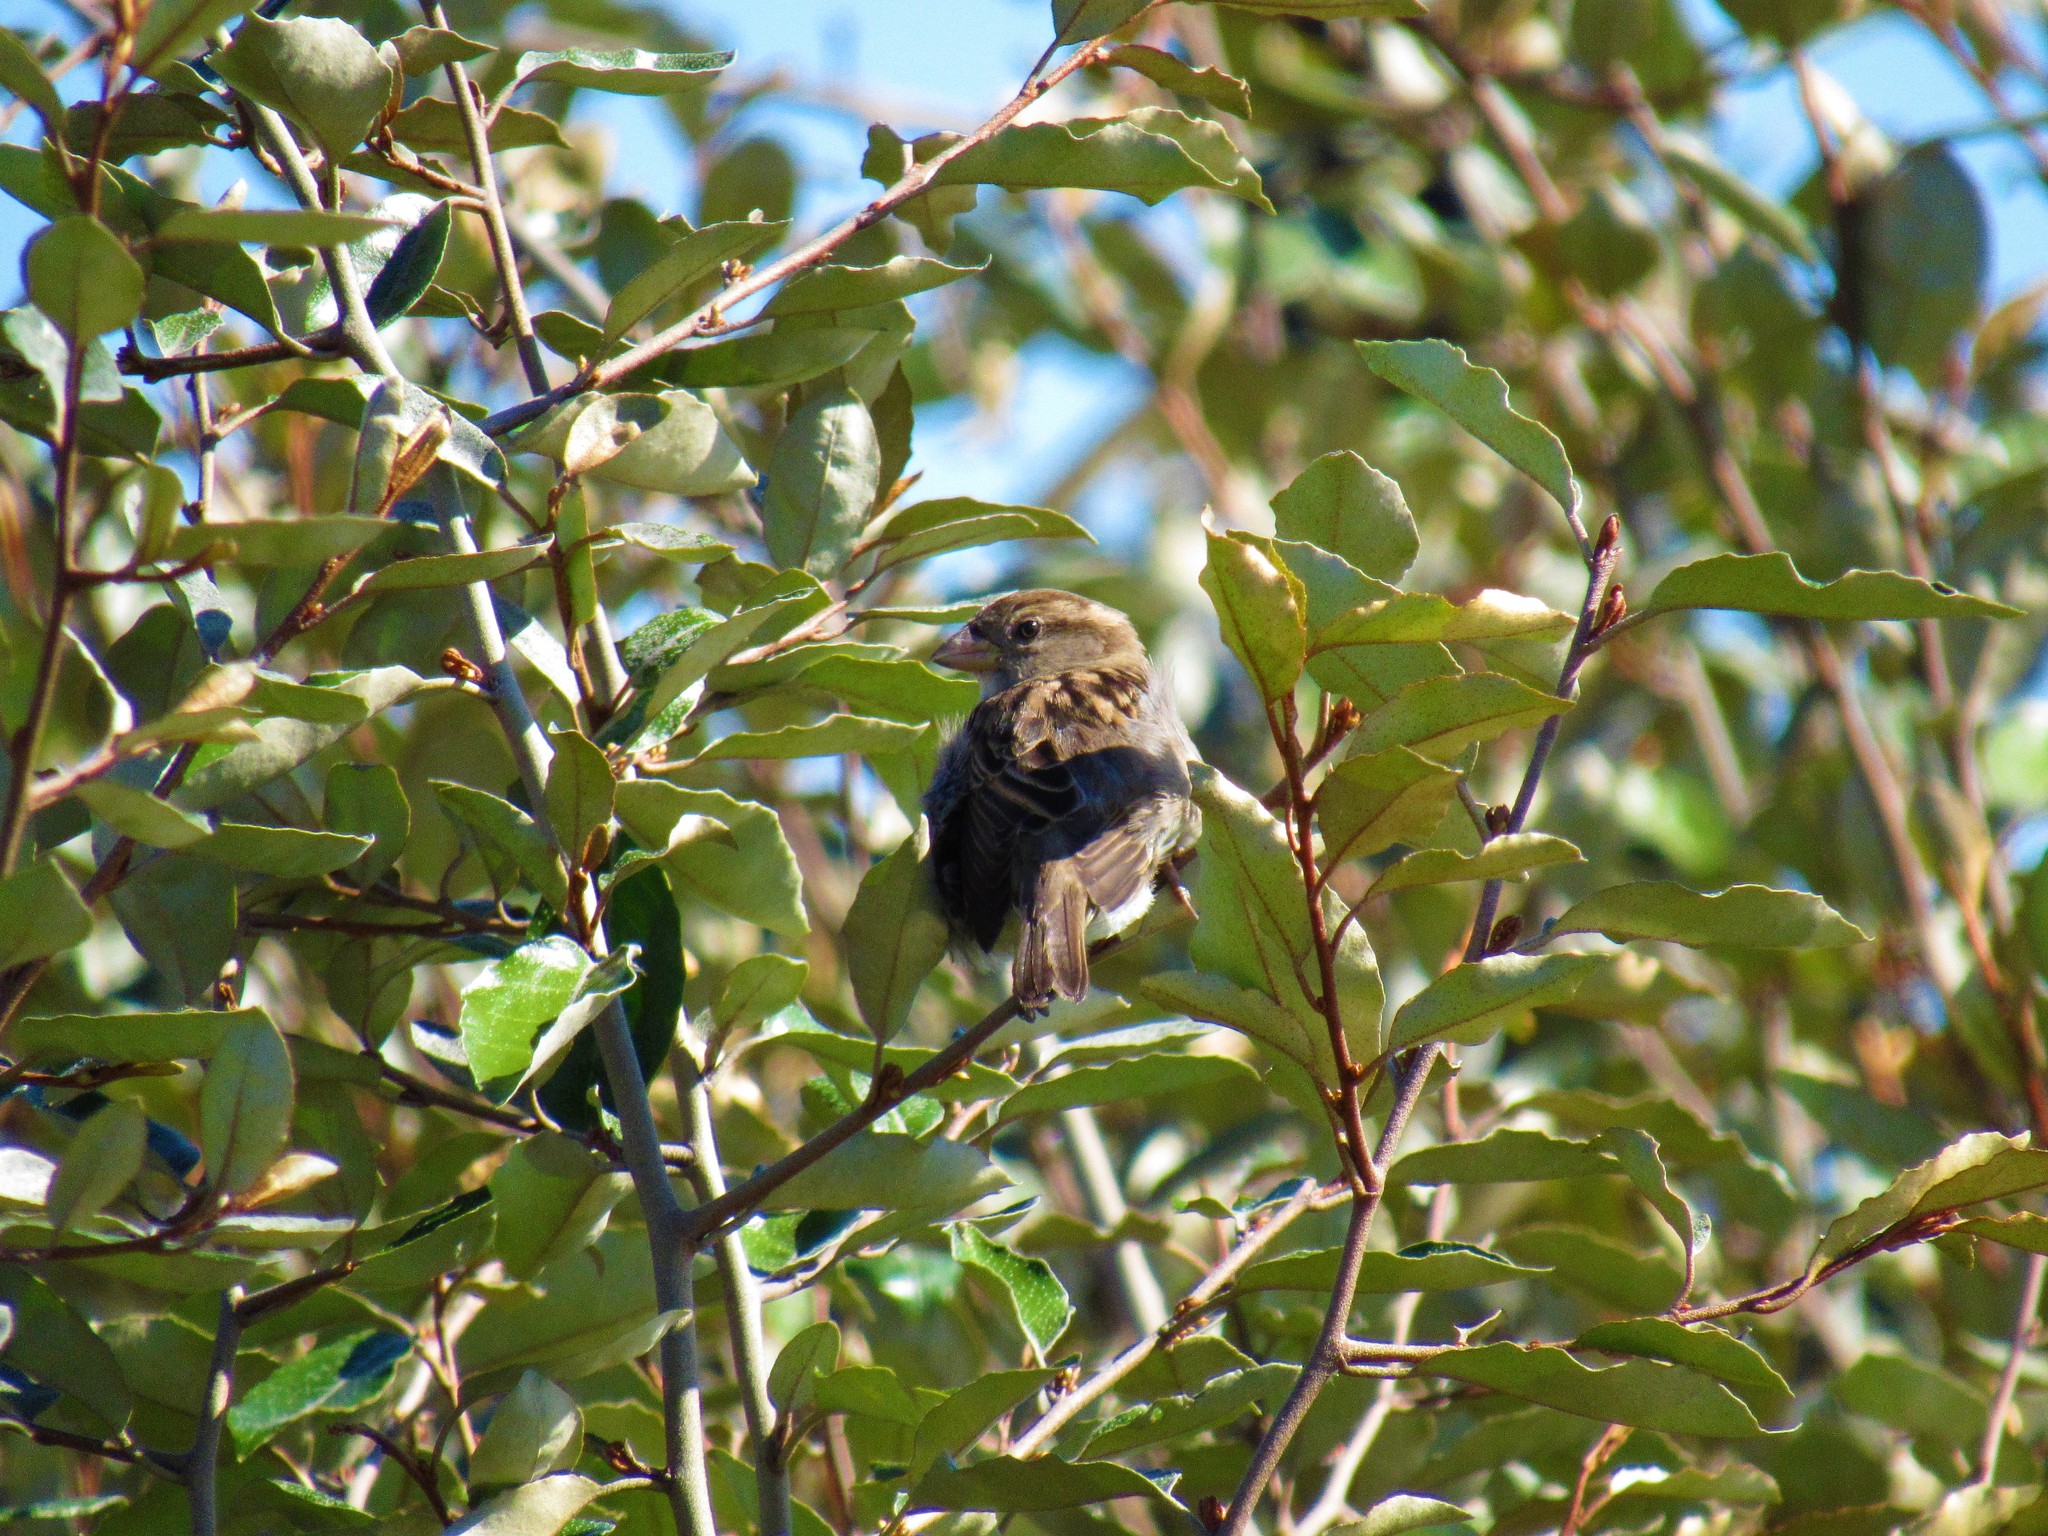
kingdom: Animalia
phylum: Chordata
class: Aves
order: Passeriformes
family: Passeridae
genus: Passer
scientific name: Passer domesticus
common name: House sparrow
